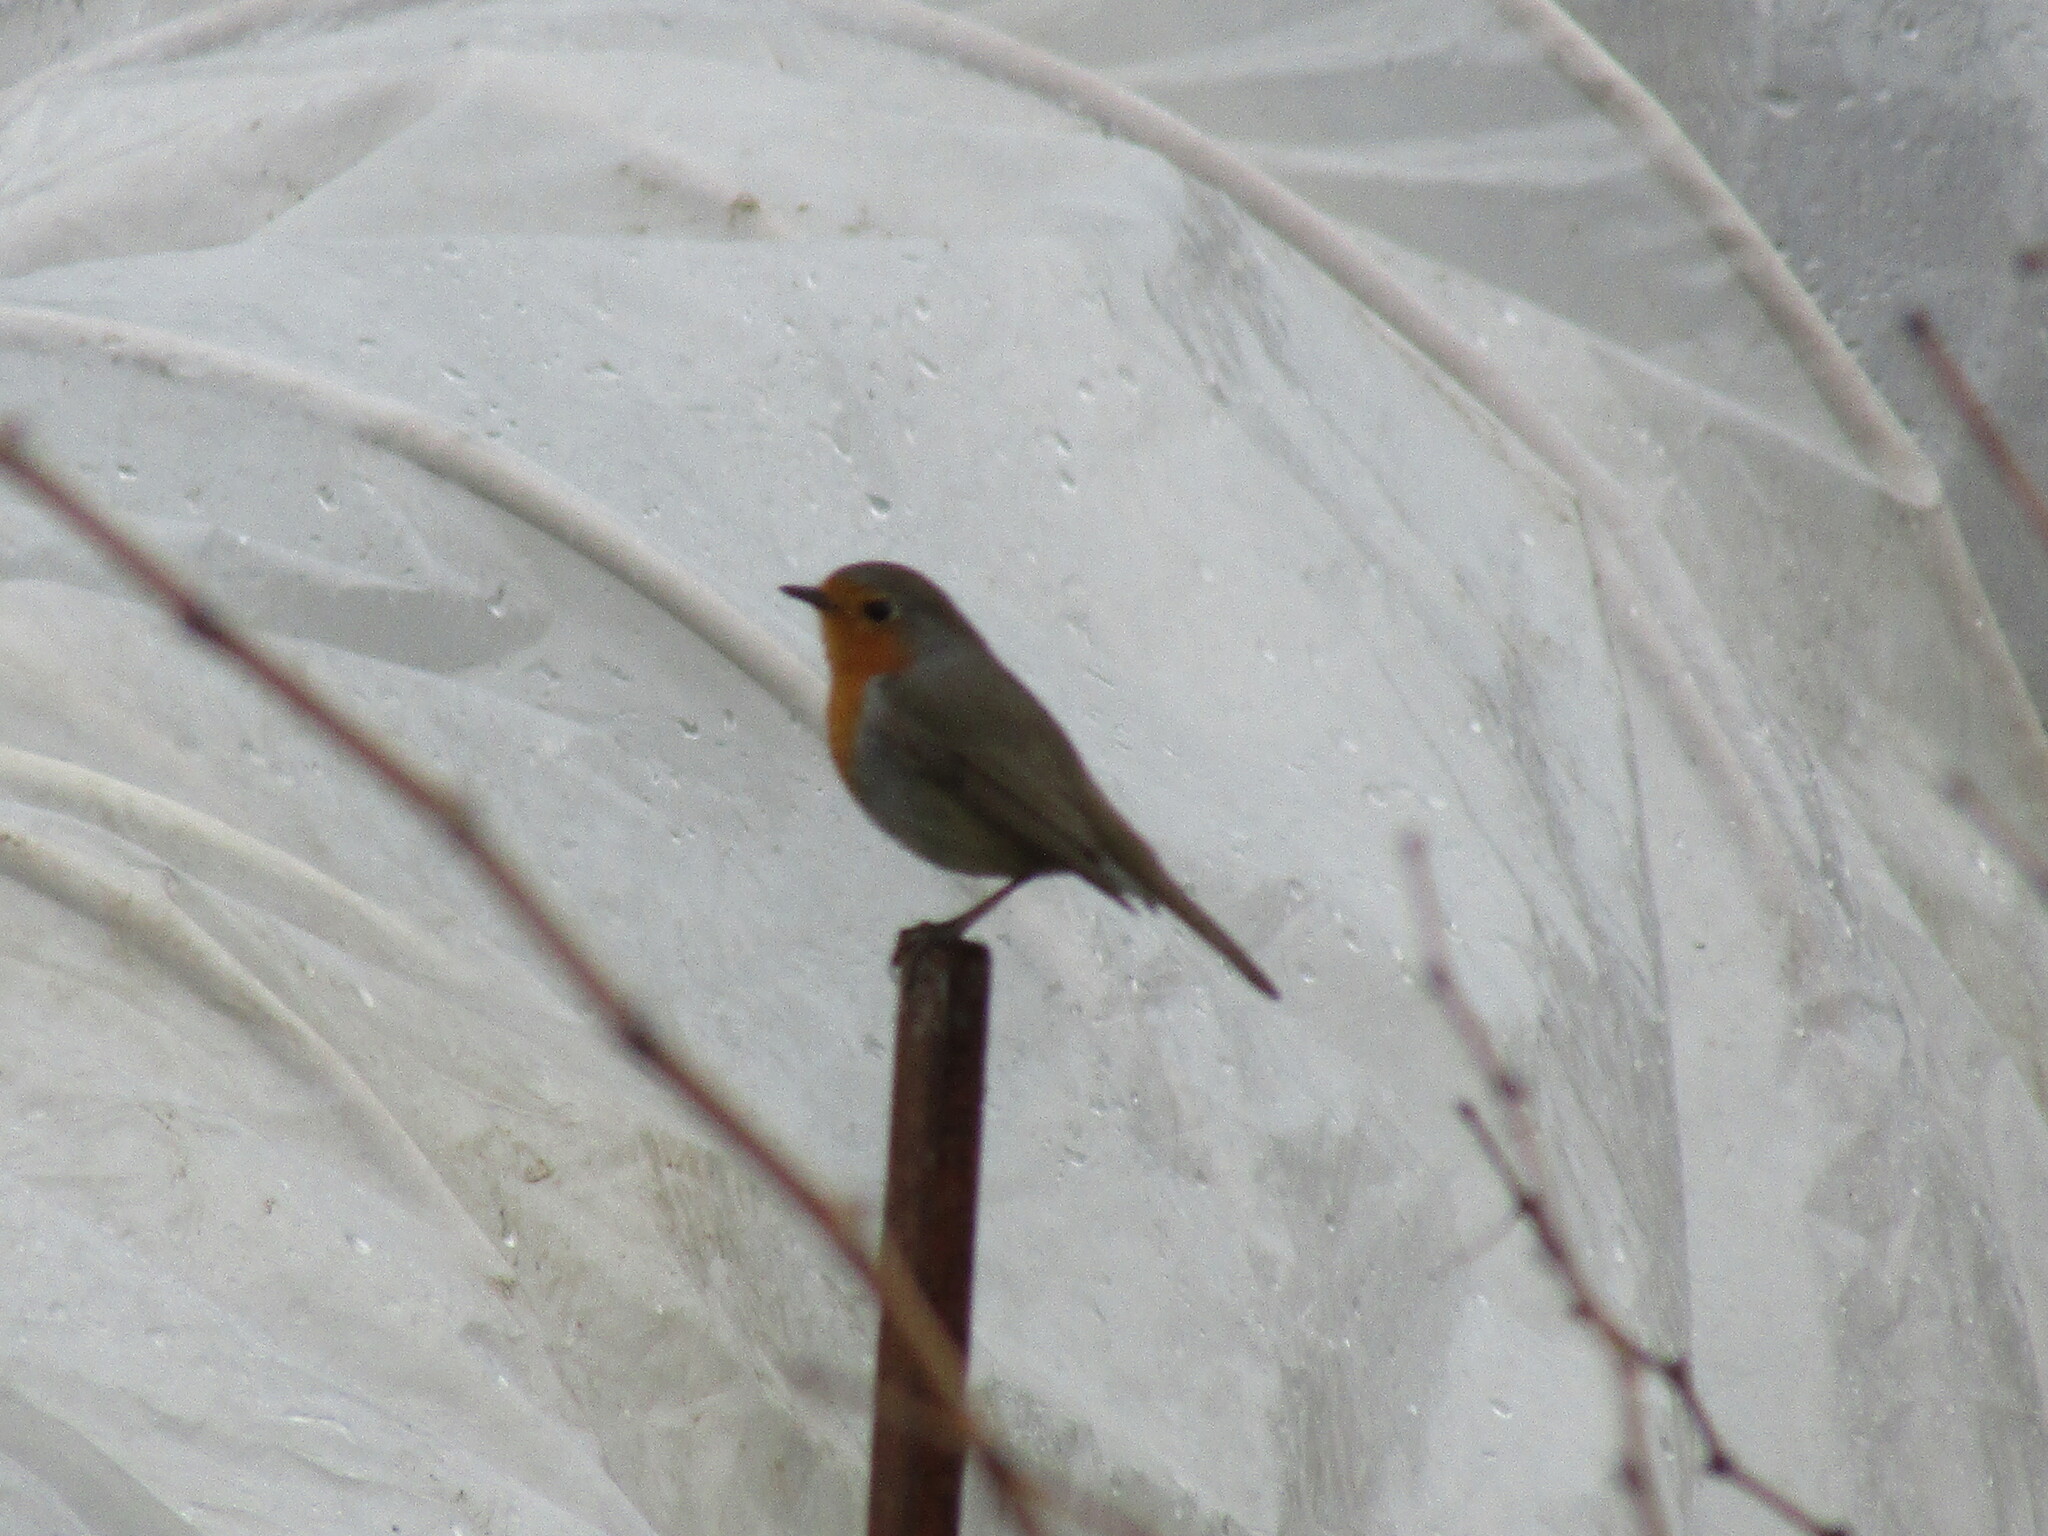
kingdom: Animalia
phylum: Chordata
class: Aves
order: Passeriformes
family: Muscicapidae
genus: Erithacus
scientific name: Erithacus rubecula
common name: European robin
